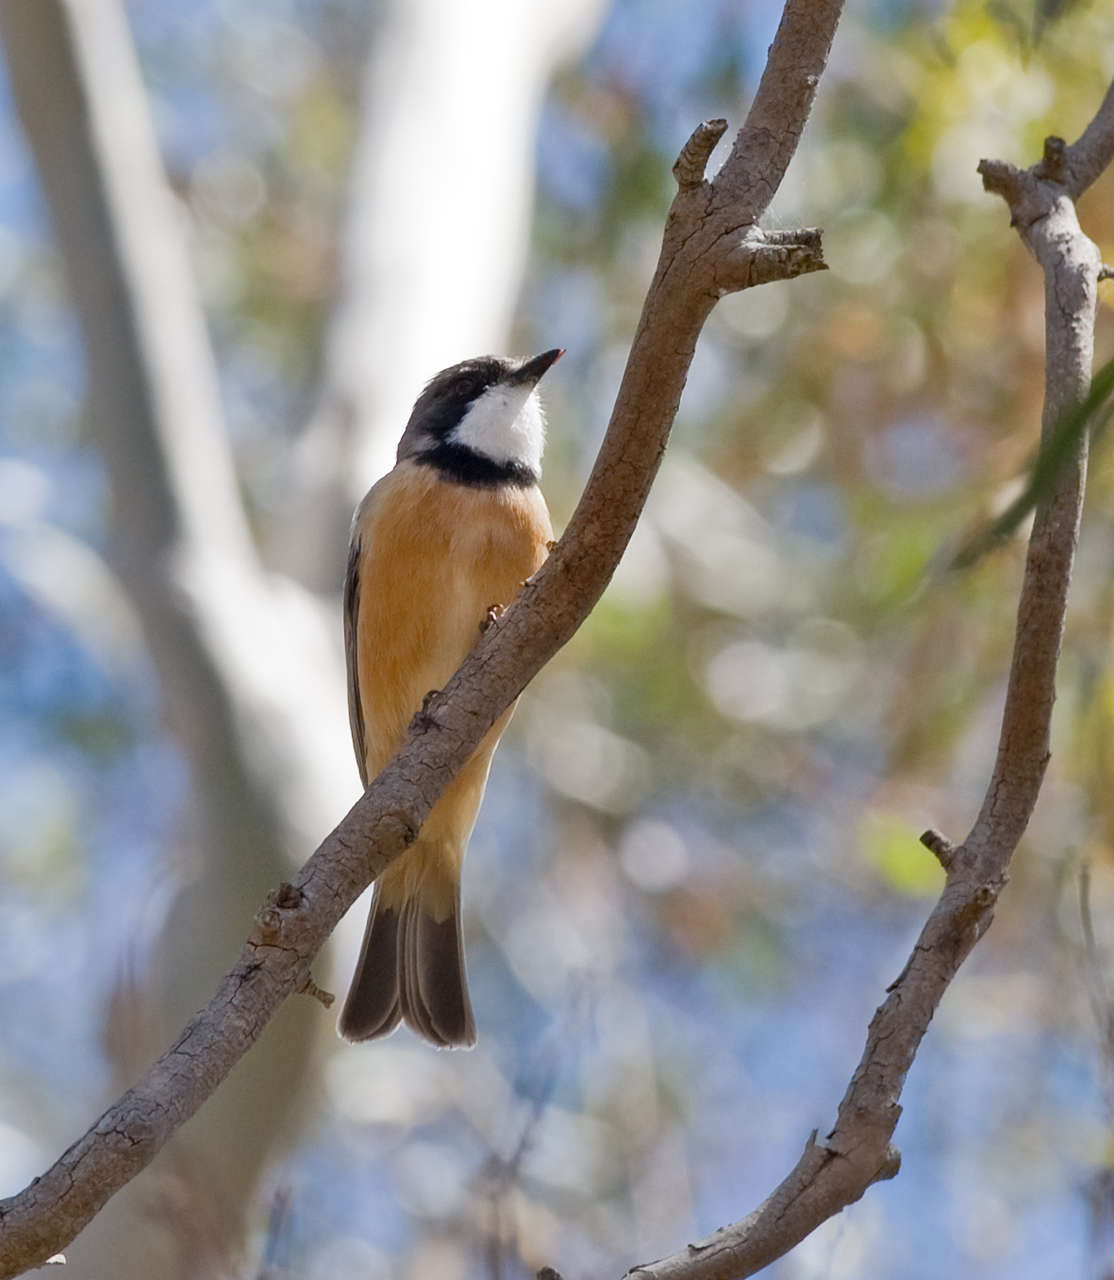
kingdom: Animalia
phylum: Chordata
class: Aves
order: Passeriformes
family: Pachycephalidae
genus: Pachycephala
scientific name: Pachycephala rufiventris
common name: Rufous whistler
